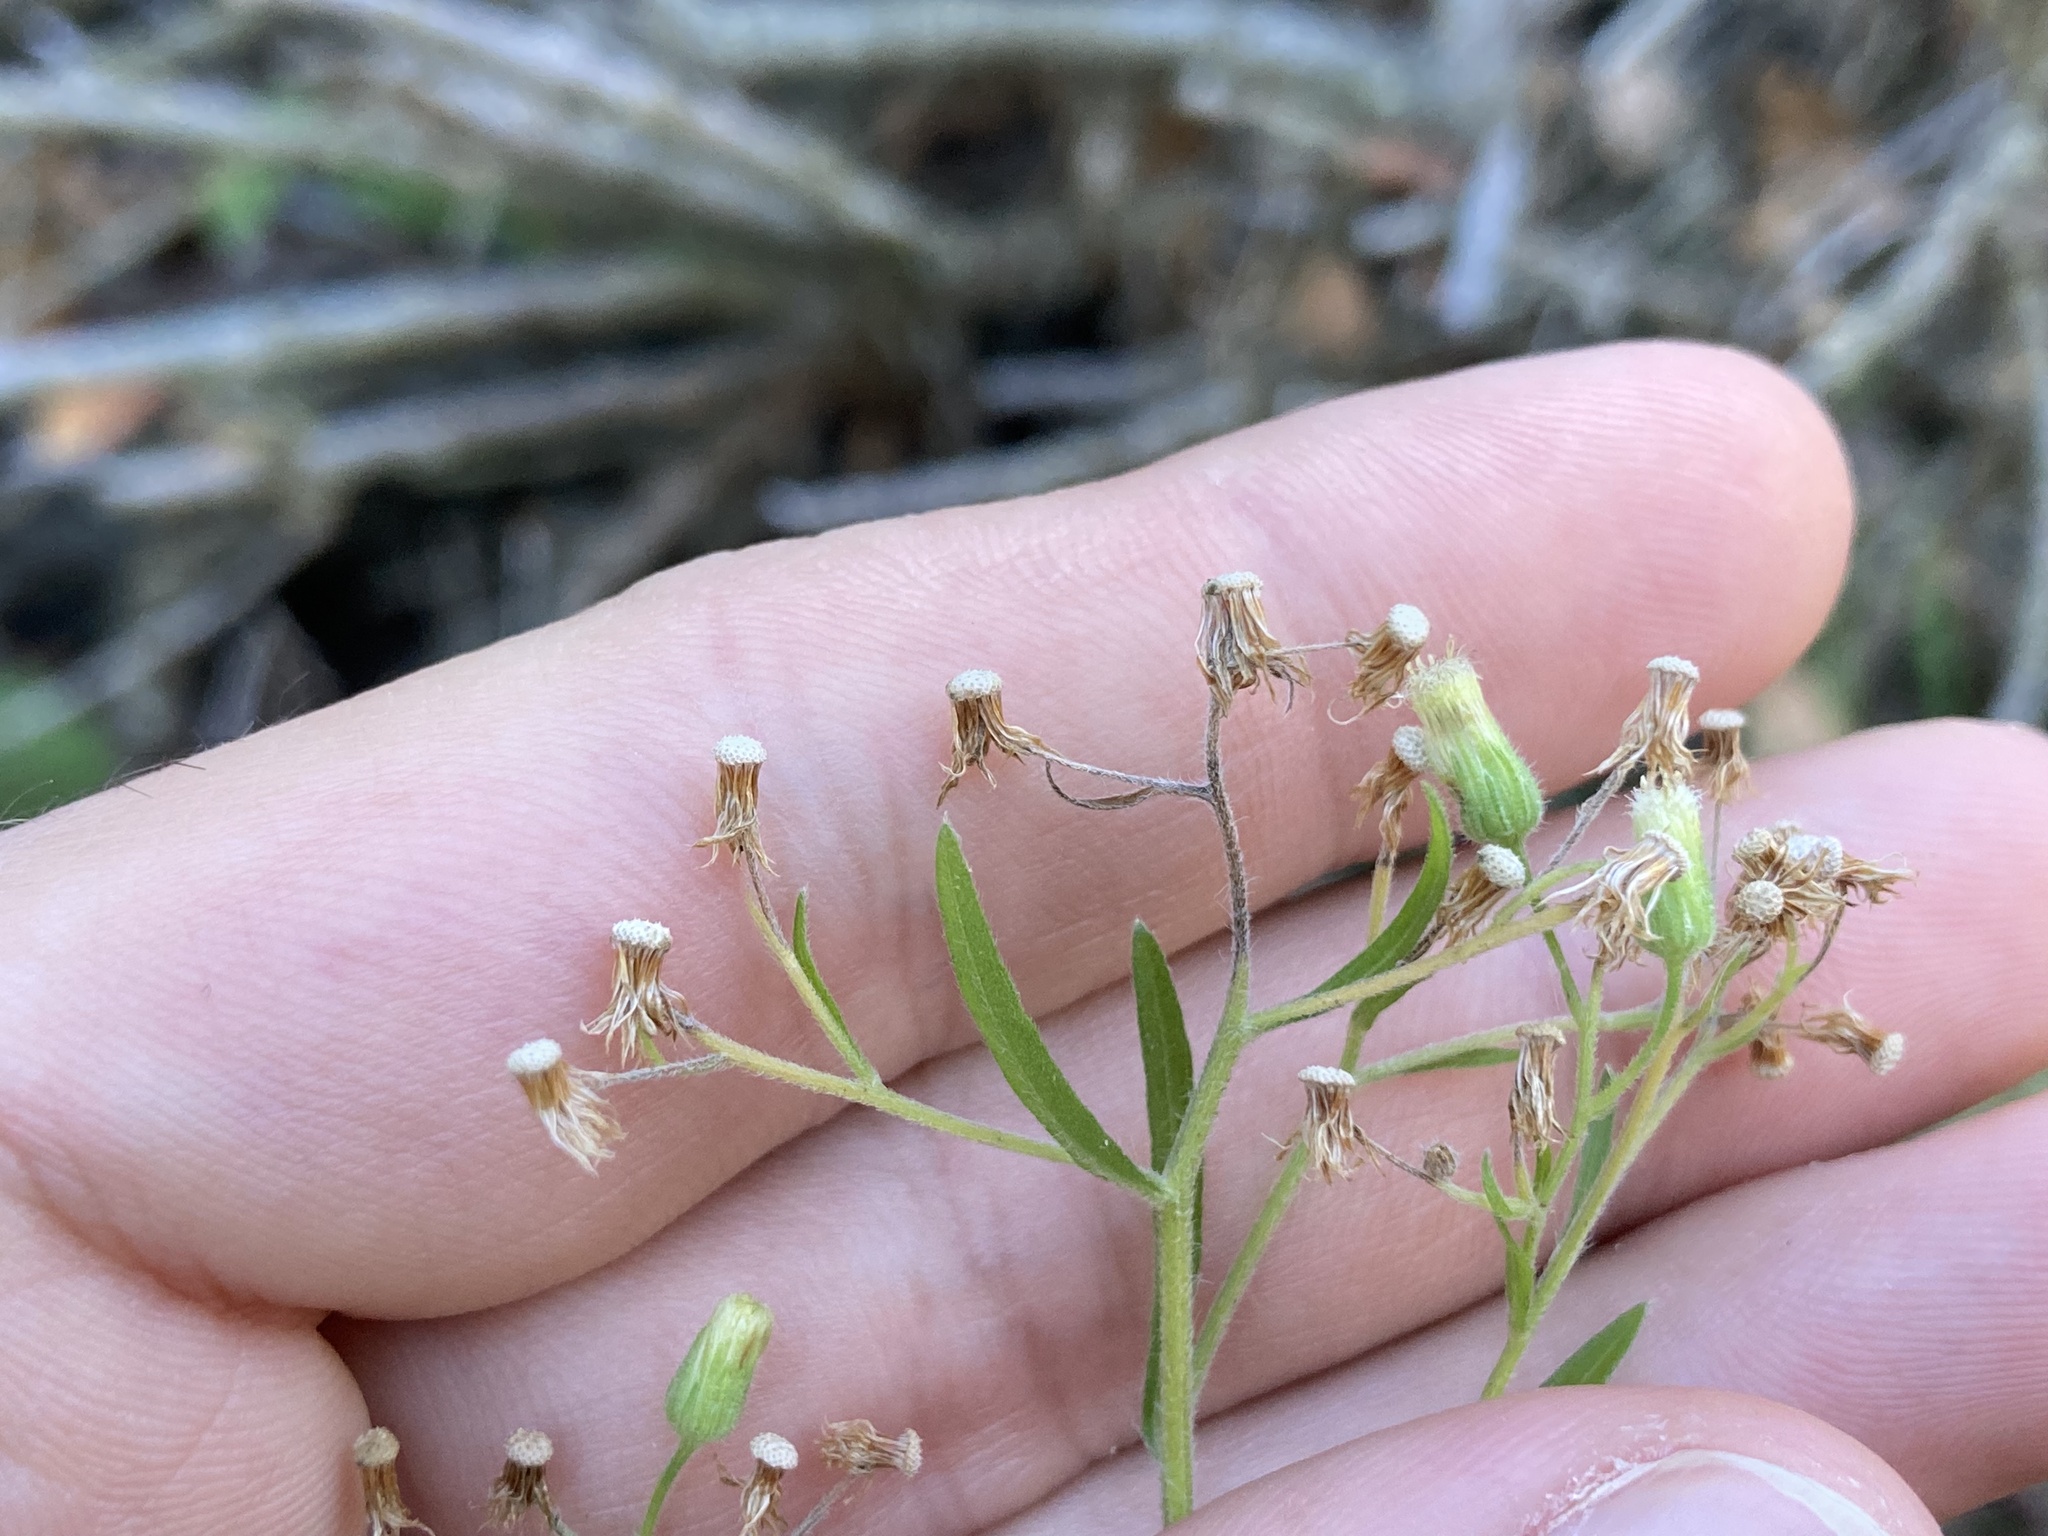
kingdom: Plantae
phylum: Tracheophyta
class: Magnoliopsida
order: Asterales
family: Asteraceae
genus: Erigeron
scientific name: Erigeron canadensis
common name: Canadian fleabane
